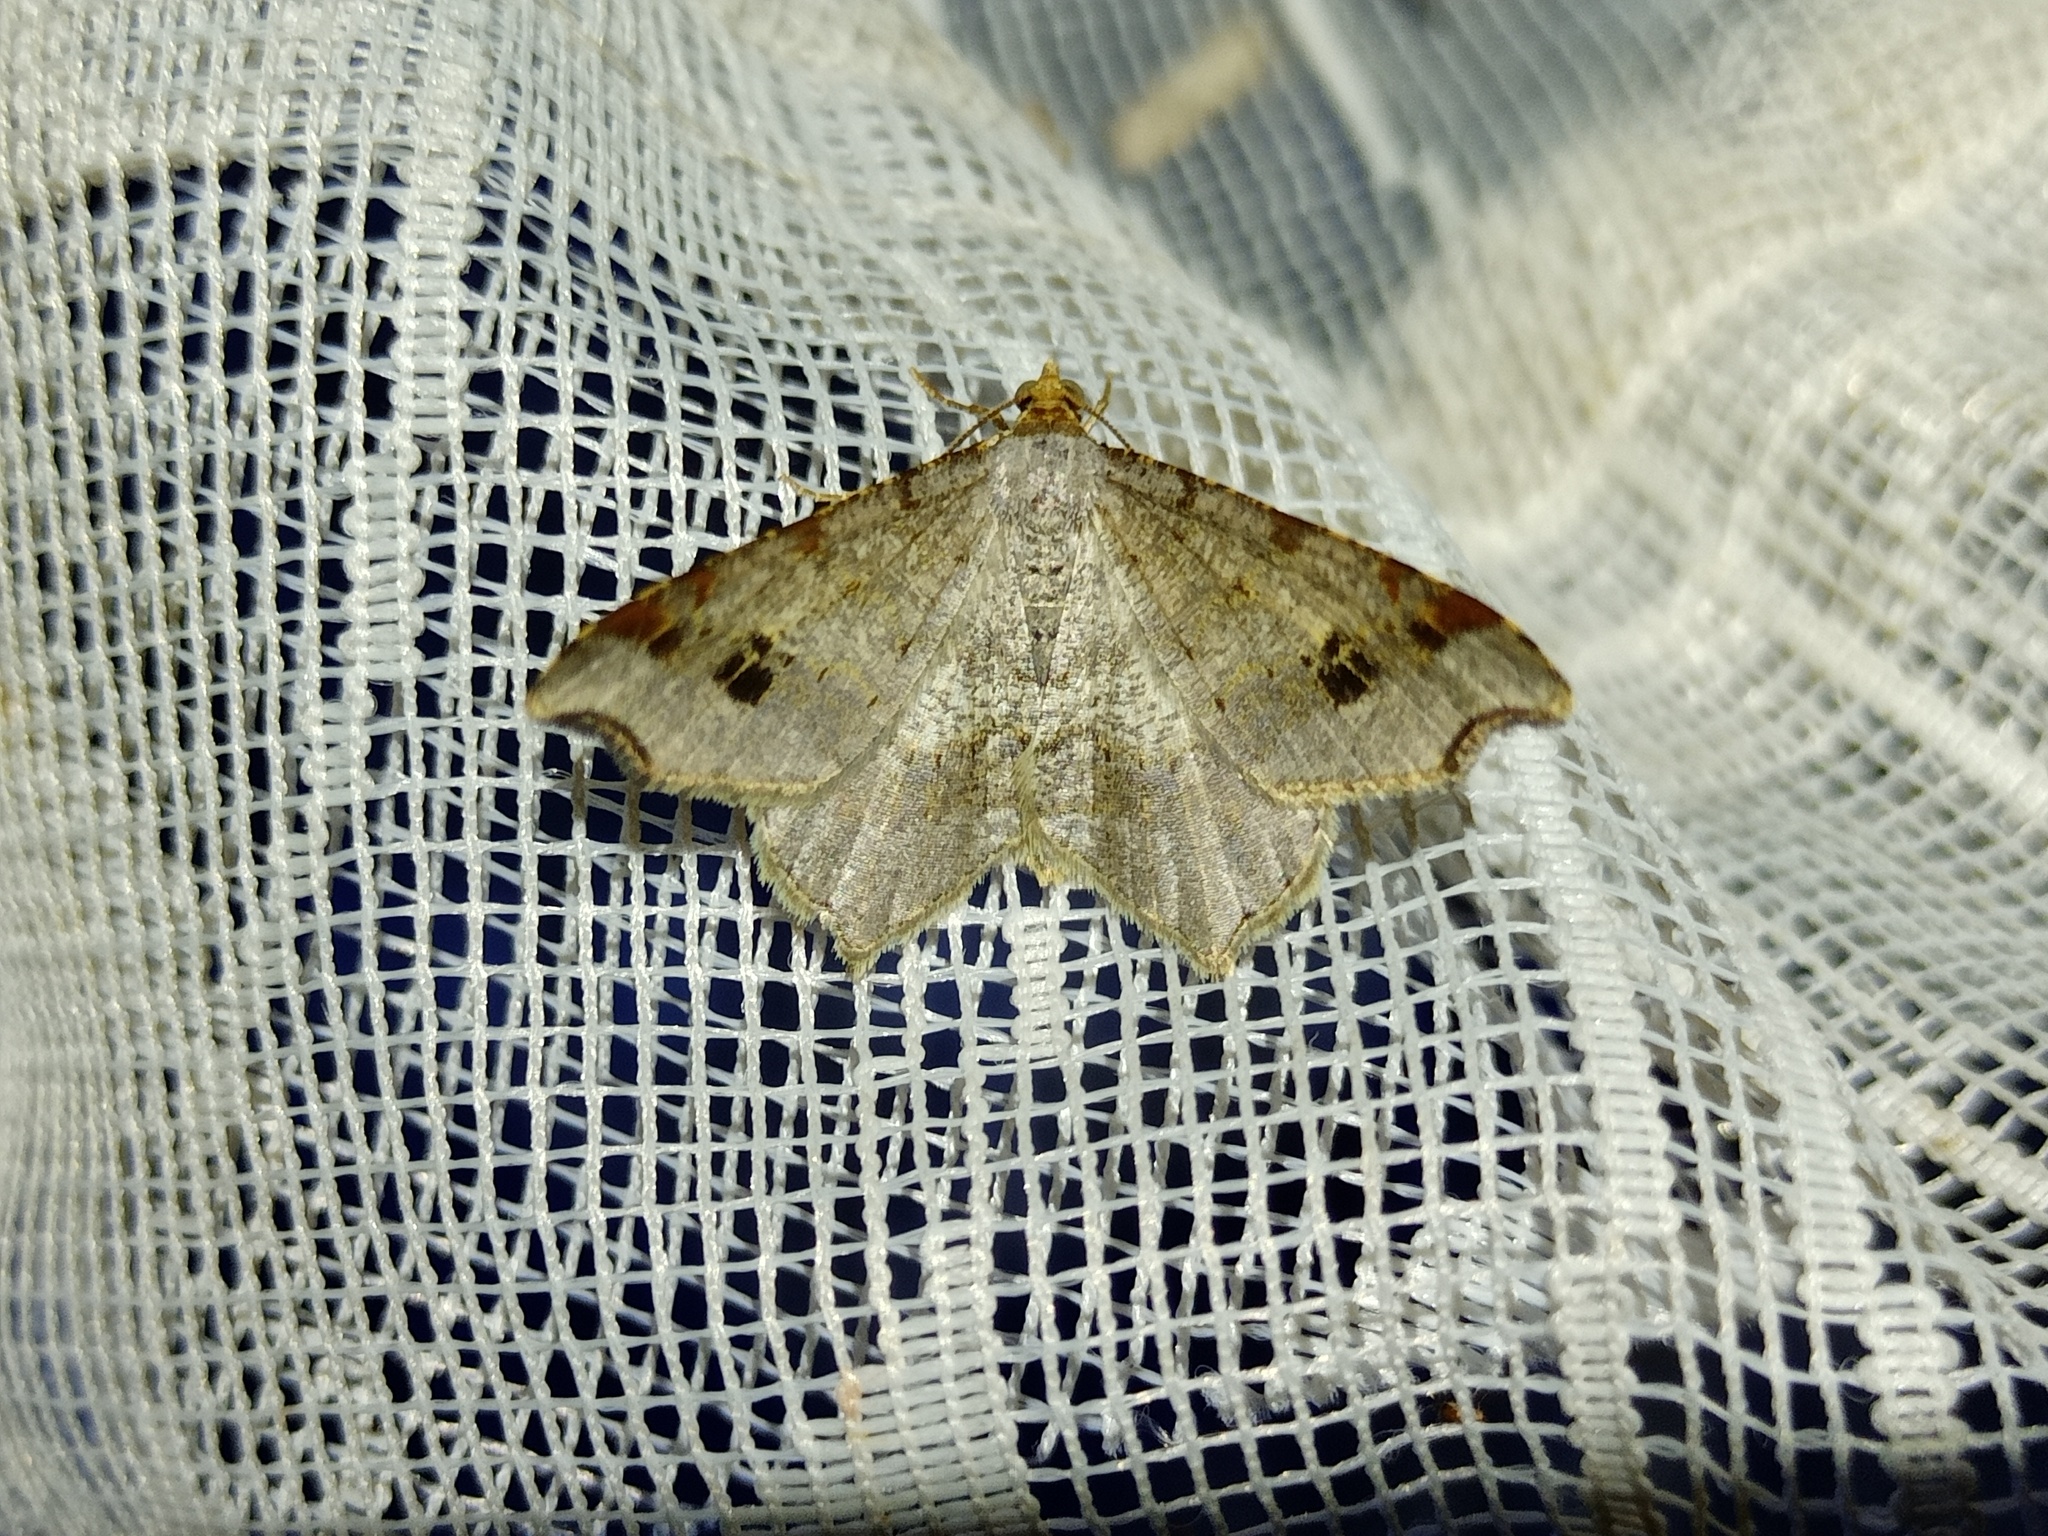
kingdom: Animalia
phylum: Arthropoda
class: Insecta
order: Lepidoptera
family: Geometridae
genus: Macaria
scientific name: Macaria alternata
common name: Sharp-angled peacock
